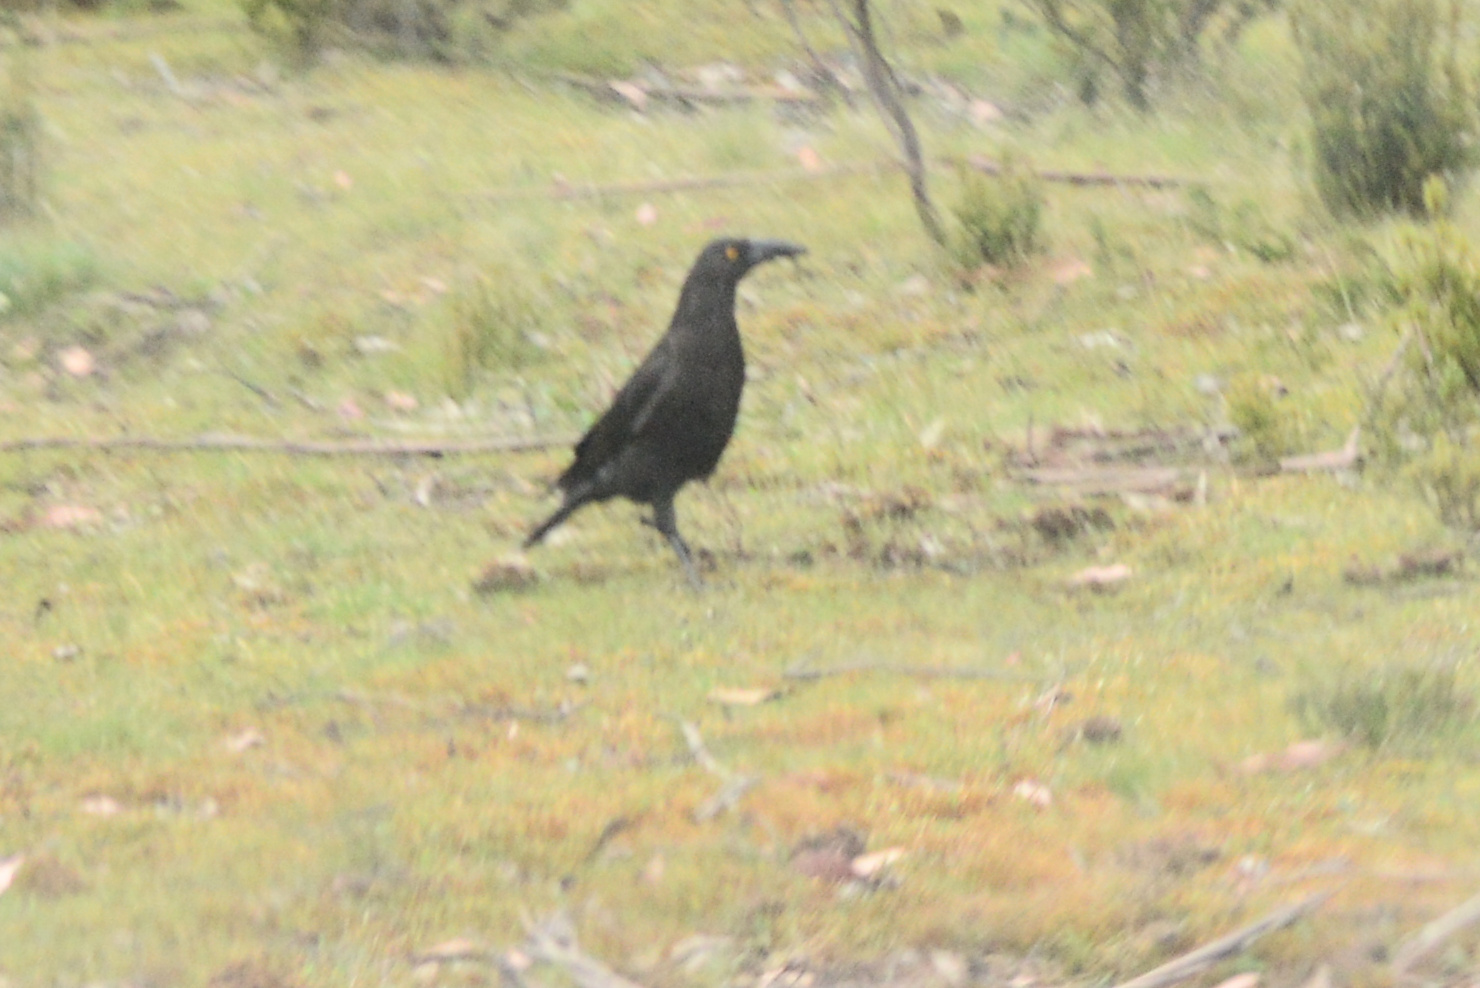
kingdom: Animalia
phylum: Chordata
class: Aves
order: Passeriformes
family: Cracticidae
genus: Strepera
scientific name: Strepera fuliginosa
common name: Black currawong
